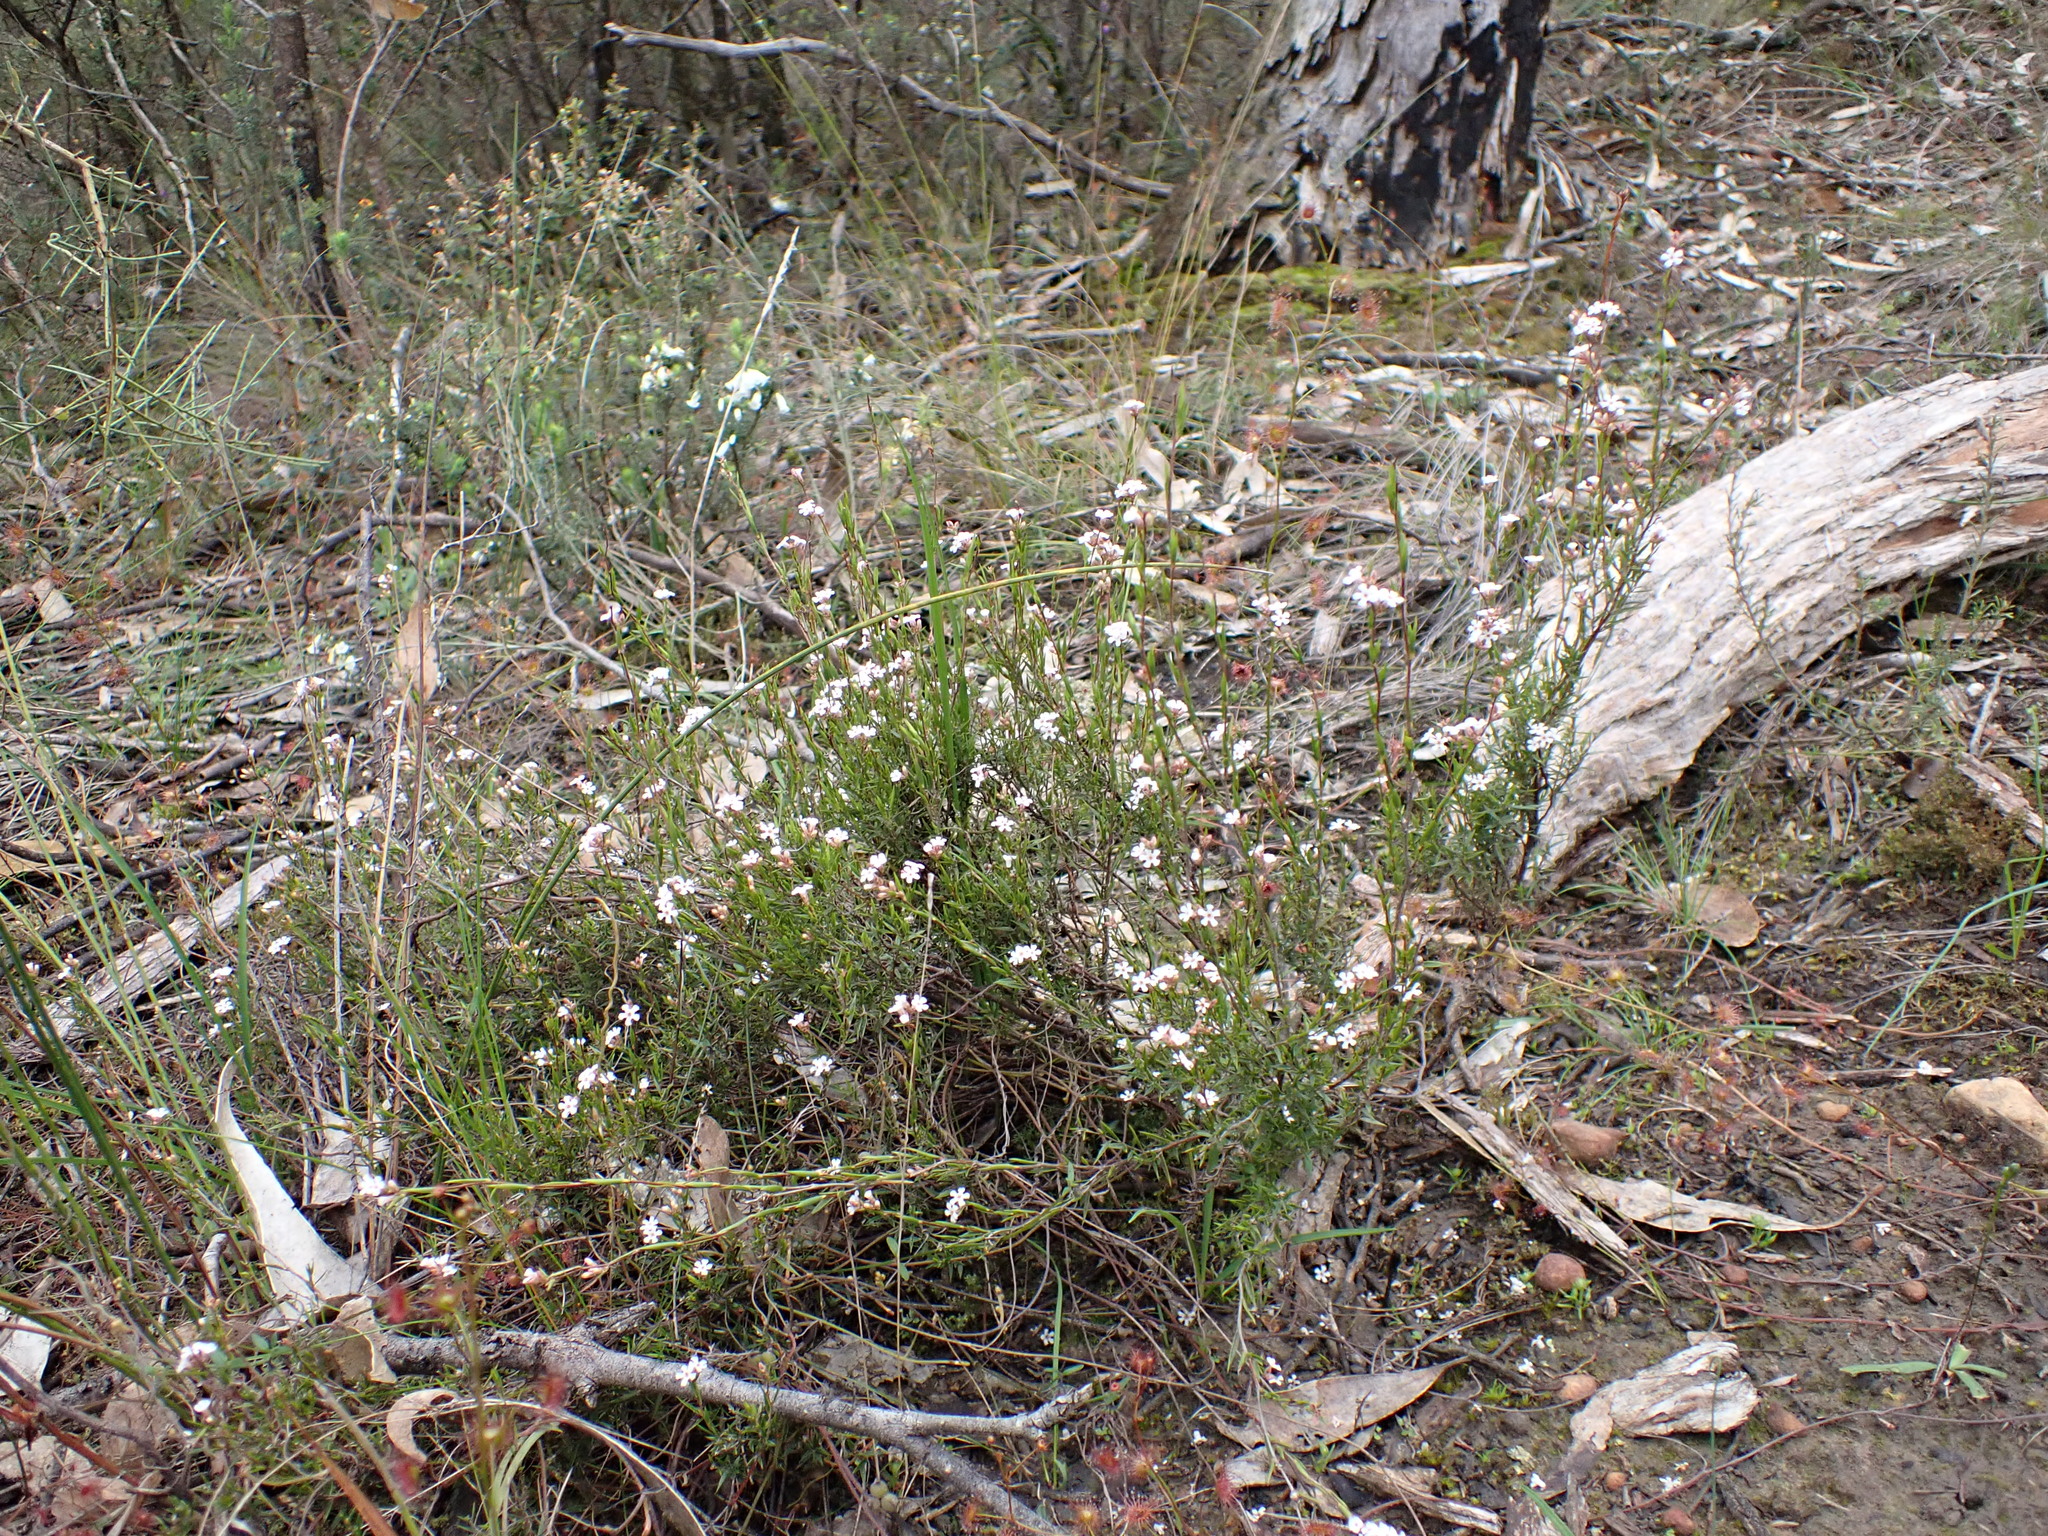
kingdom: Plantae
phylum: Tracheophyta
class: Magnoliopsida
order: Ericales
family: Ericaceae
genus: Leucopogon
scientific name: Leucopogon virgatus
